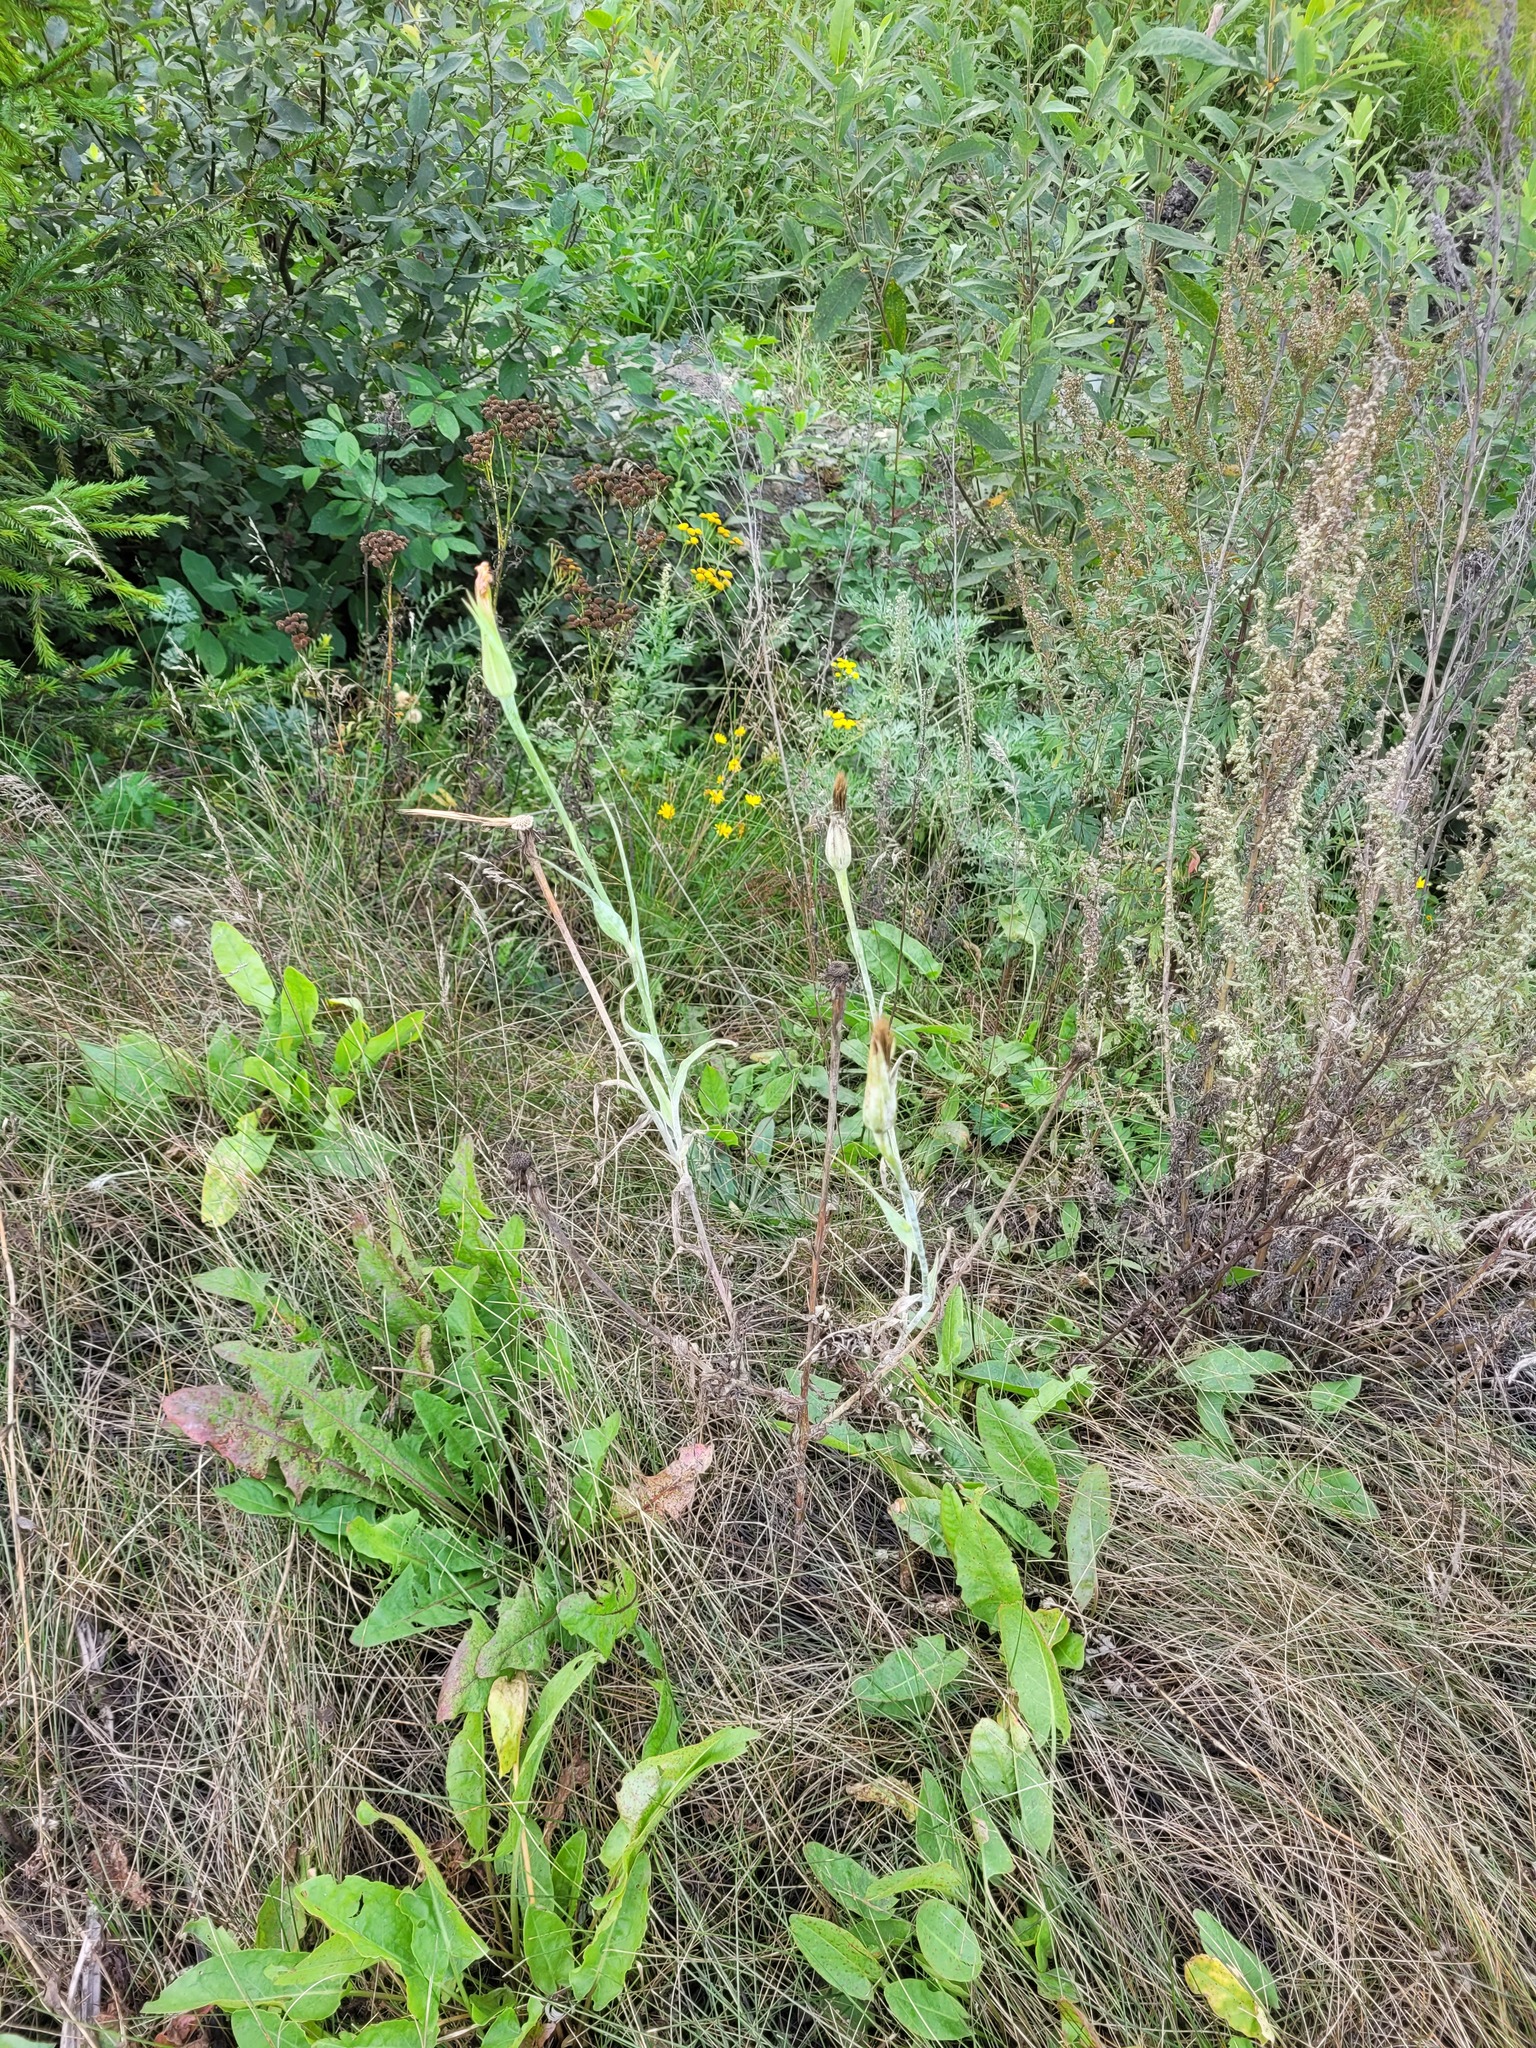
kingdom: Plantae
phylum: Tracheophyta
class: Magnoliopsida
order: Asterales
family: Asteraceae
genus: Tragopogon
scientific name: Tragopogon dubius
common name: Yellow salsify
